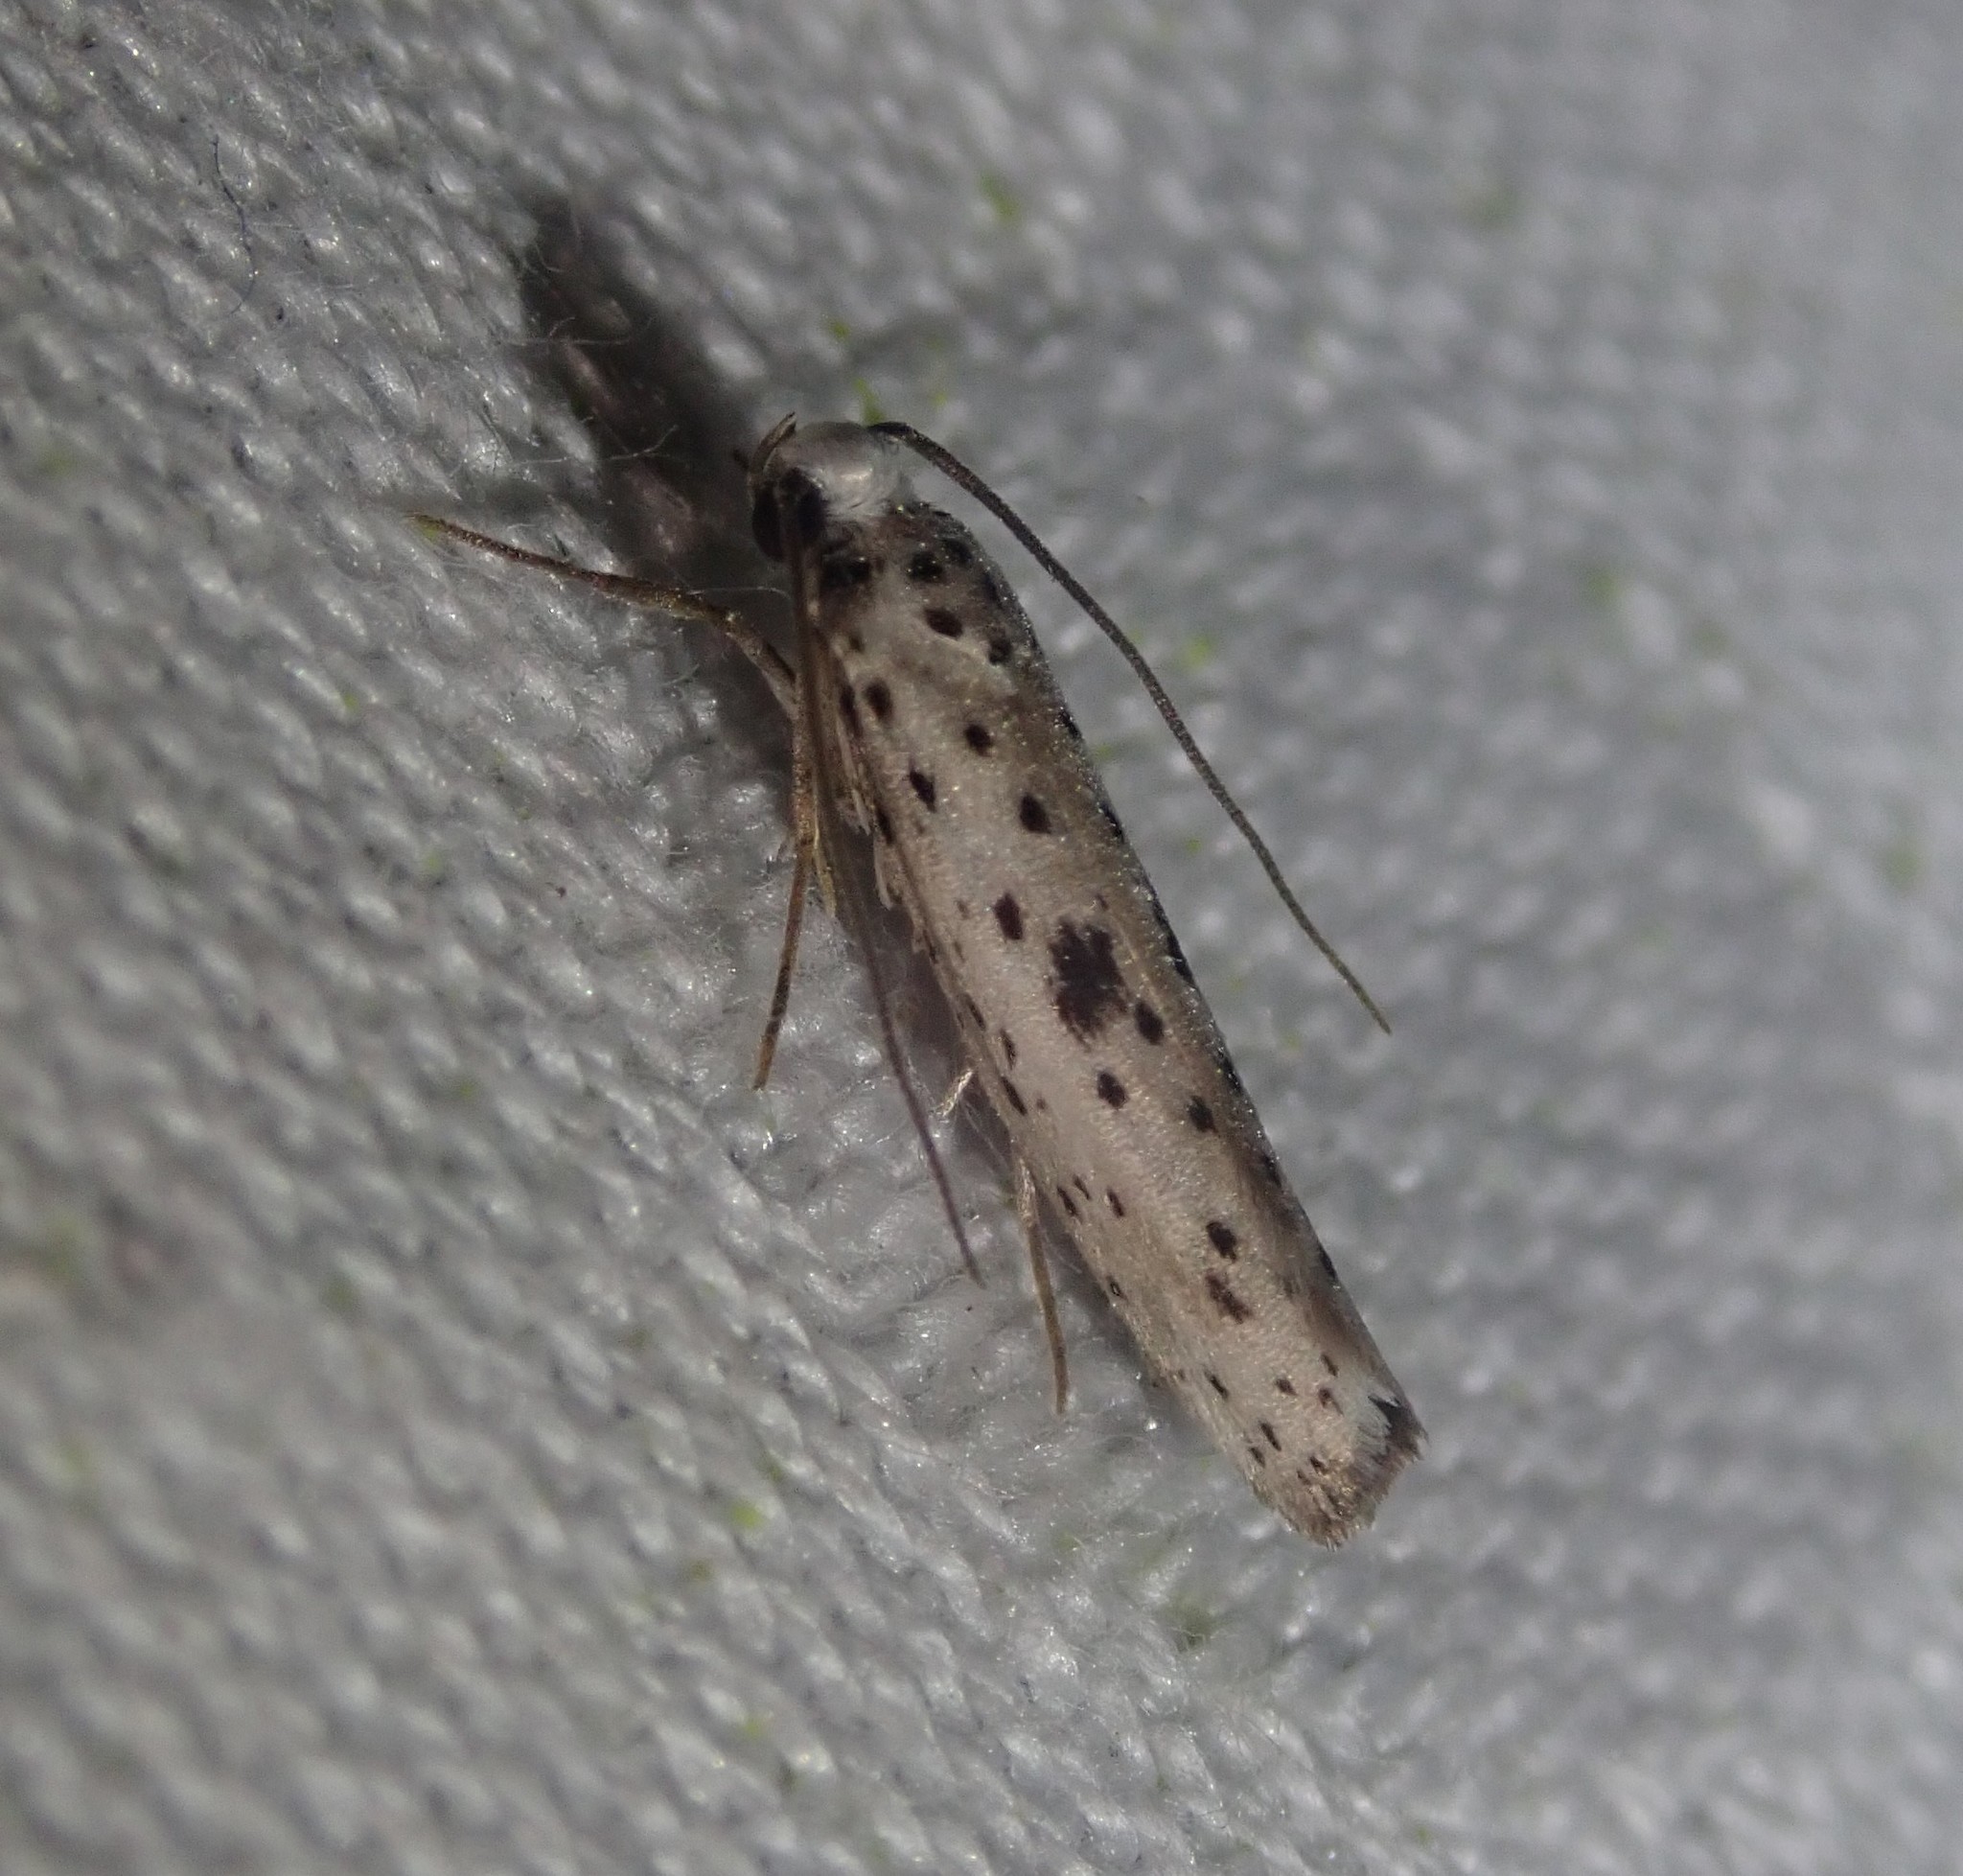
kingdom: Animalia
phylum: Arthropoda
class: Insecta
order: Lepidoptera
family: Yponomeutidae
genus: Yponomeuta
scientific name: Yponomeuta plumbella
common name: Black-tipped ermine
